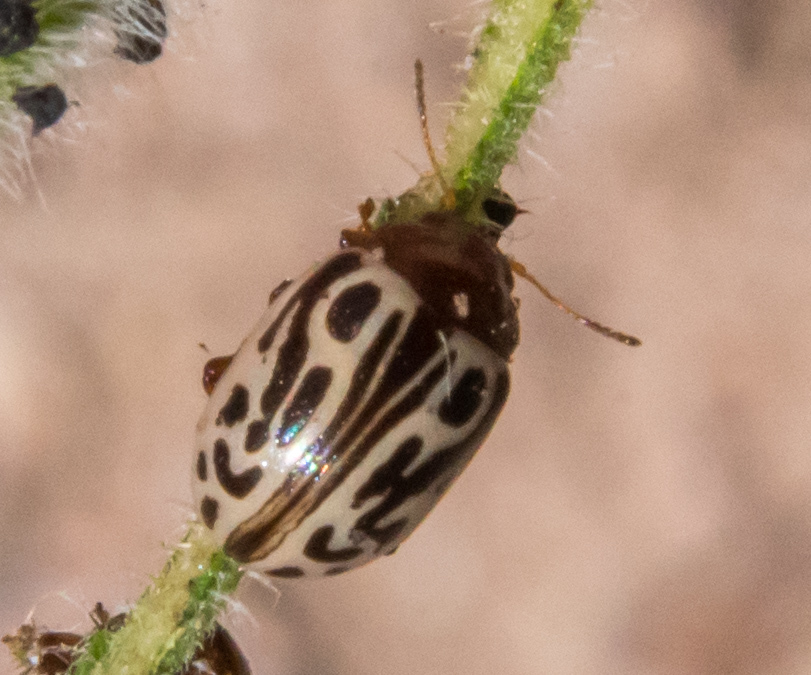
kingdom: Animalia
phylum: Arthropoda
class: Insecta
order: Coleoptera
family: Chrysomelidae
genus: Calligrapha
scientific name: Calligrapha
